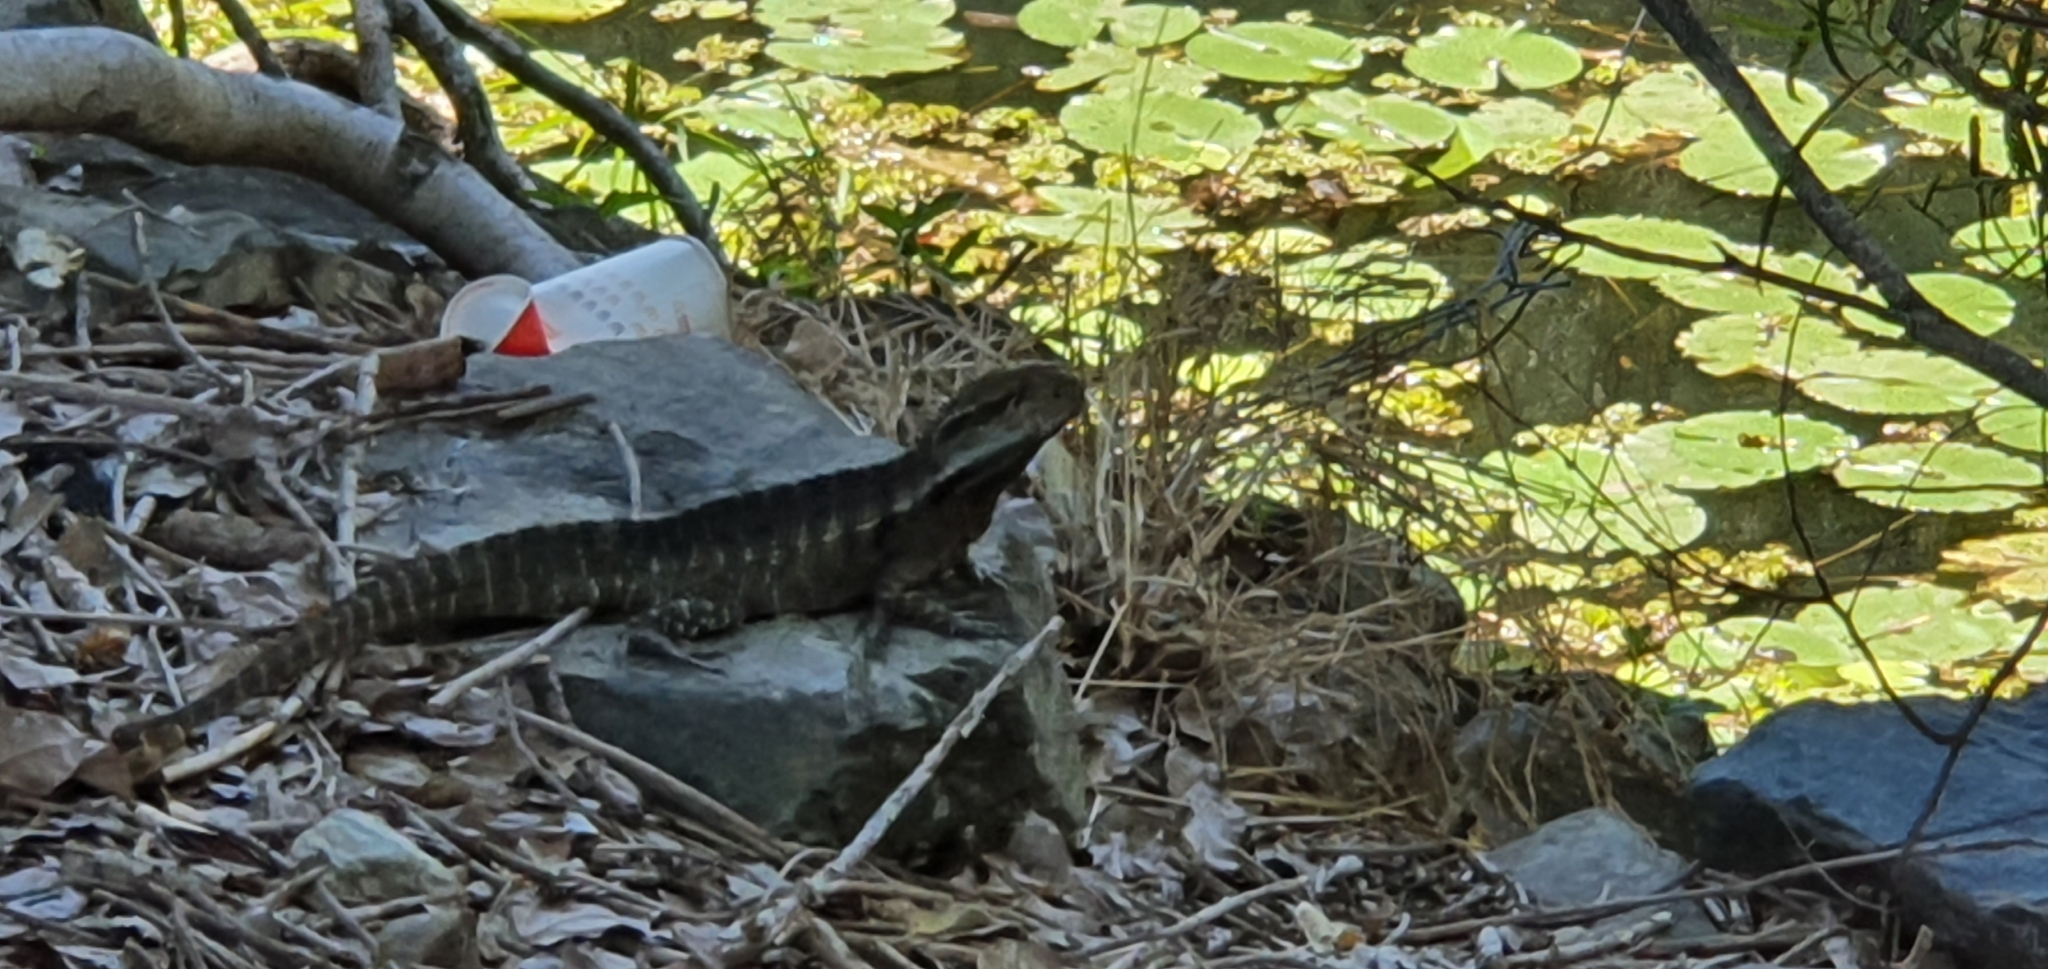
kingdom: Animalia
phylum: Chordata
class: Squamata
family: Agamidae
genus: Intellagama
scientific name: Intellagama lesueurii
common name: Eastern water dragon
